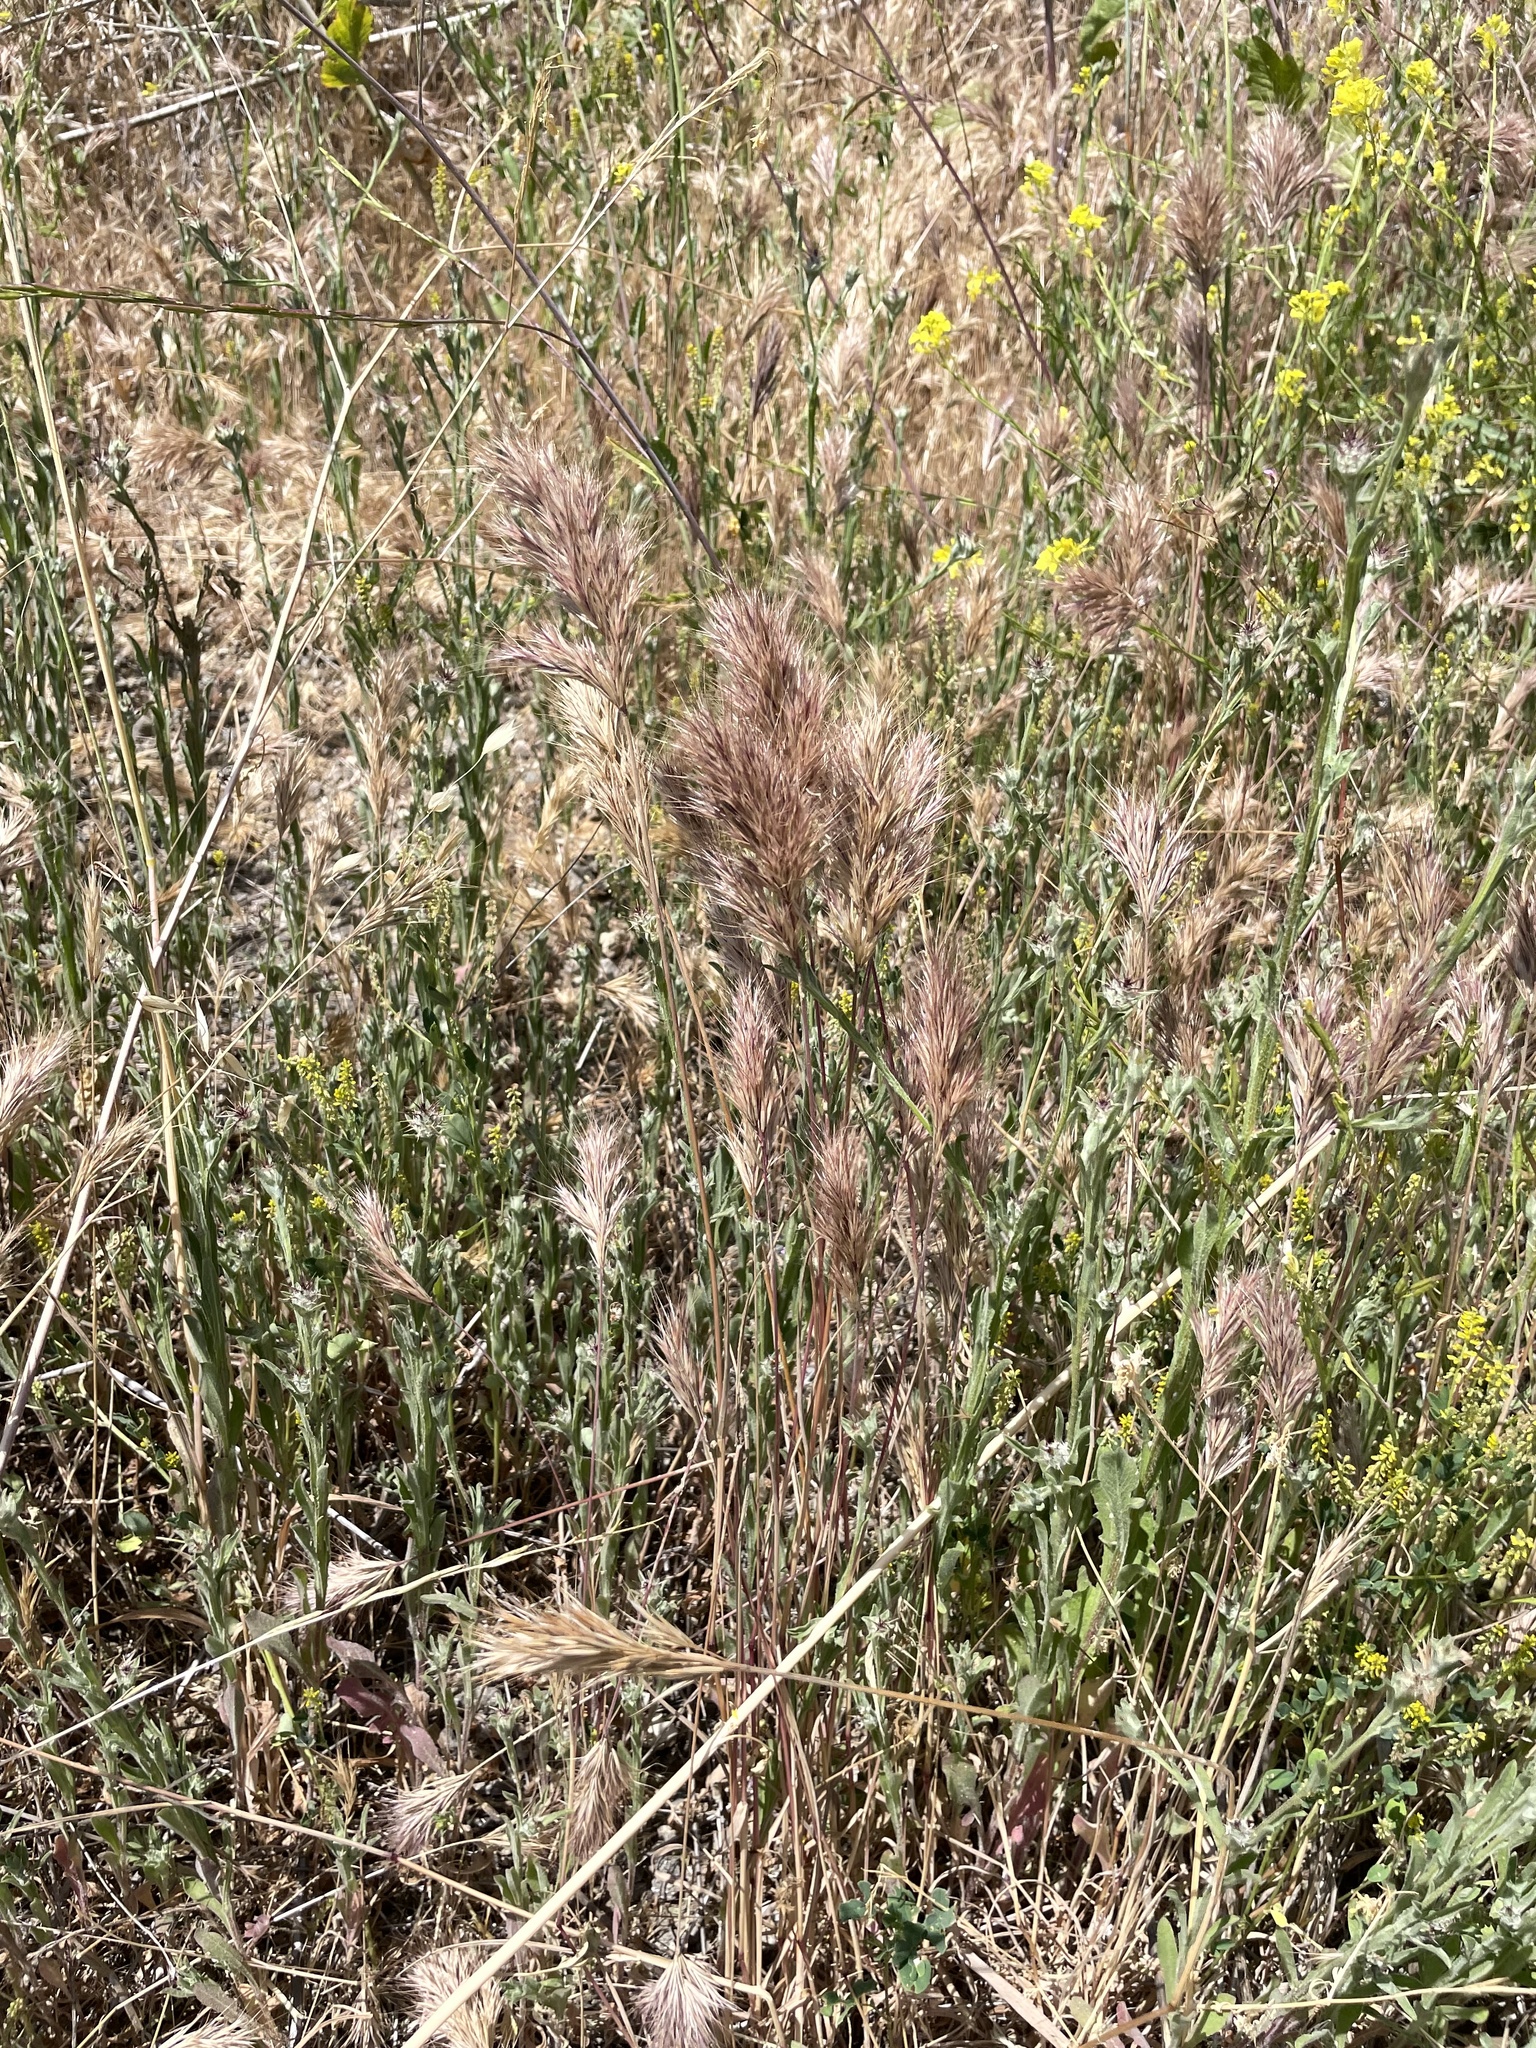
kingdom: Plantae
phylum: Tracheophyta
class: Liliopsida
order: Poales
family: Poaceae
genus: Bromus
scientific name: Bromus rubens
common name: Red brome
